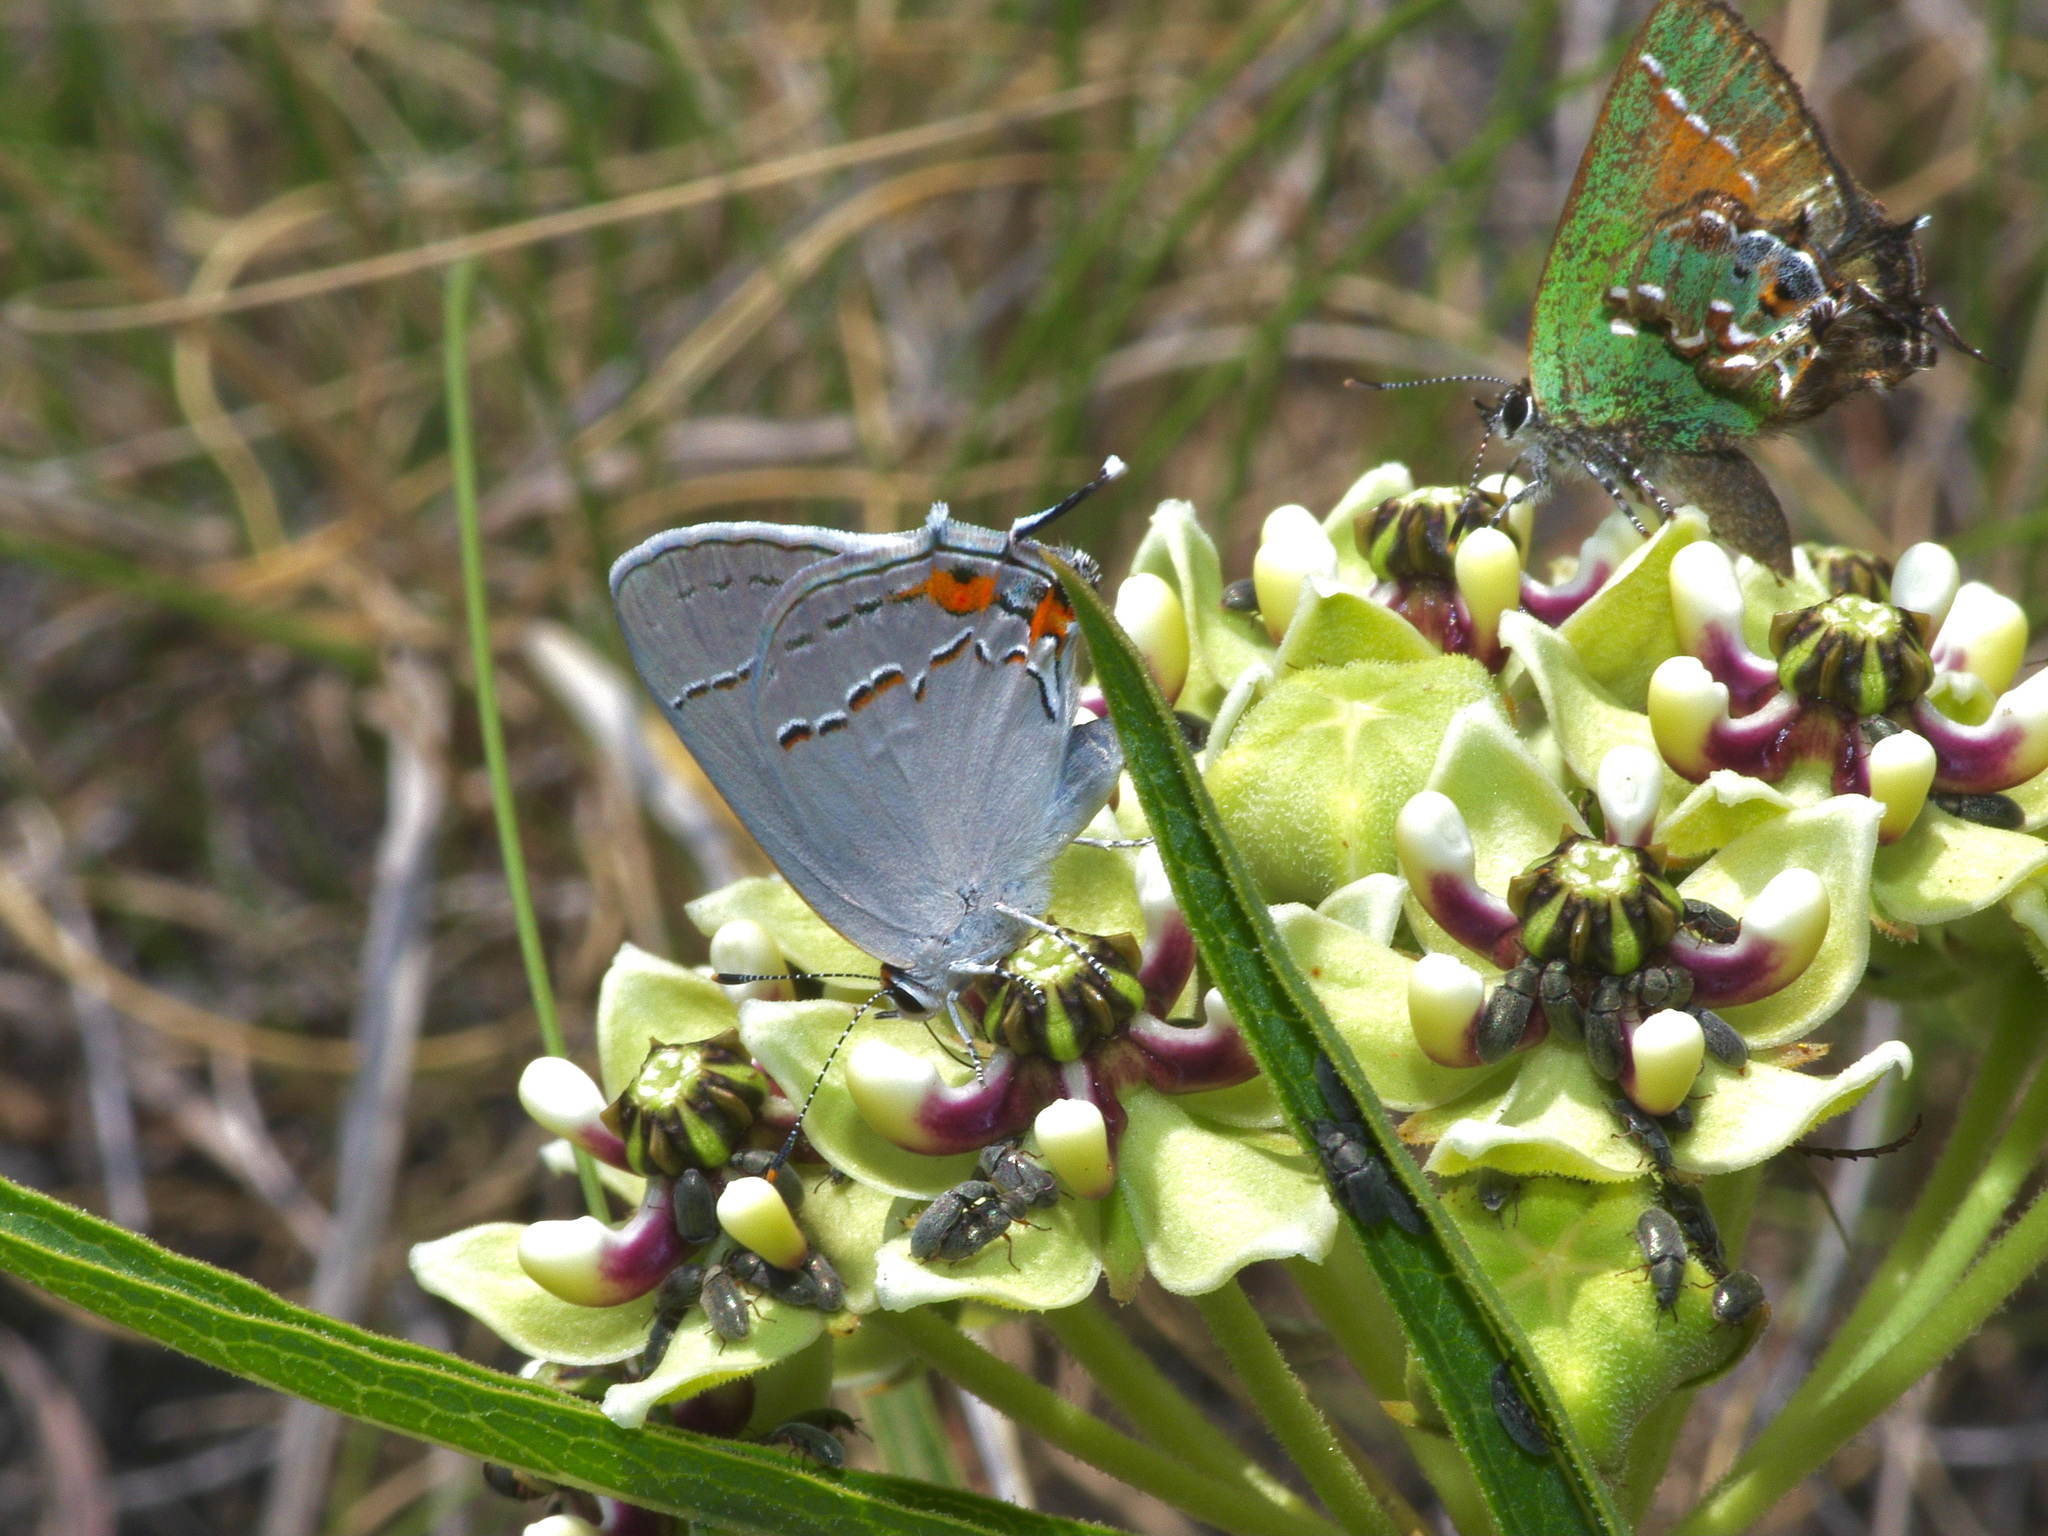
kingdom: Animalia
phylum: Arthropoda
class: Insecta
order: Lepidoptera
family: Lycaenidae
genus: Strymon
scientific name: Strymon melinus
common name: Gray hairstreak
